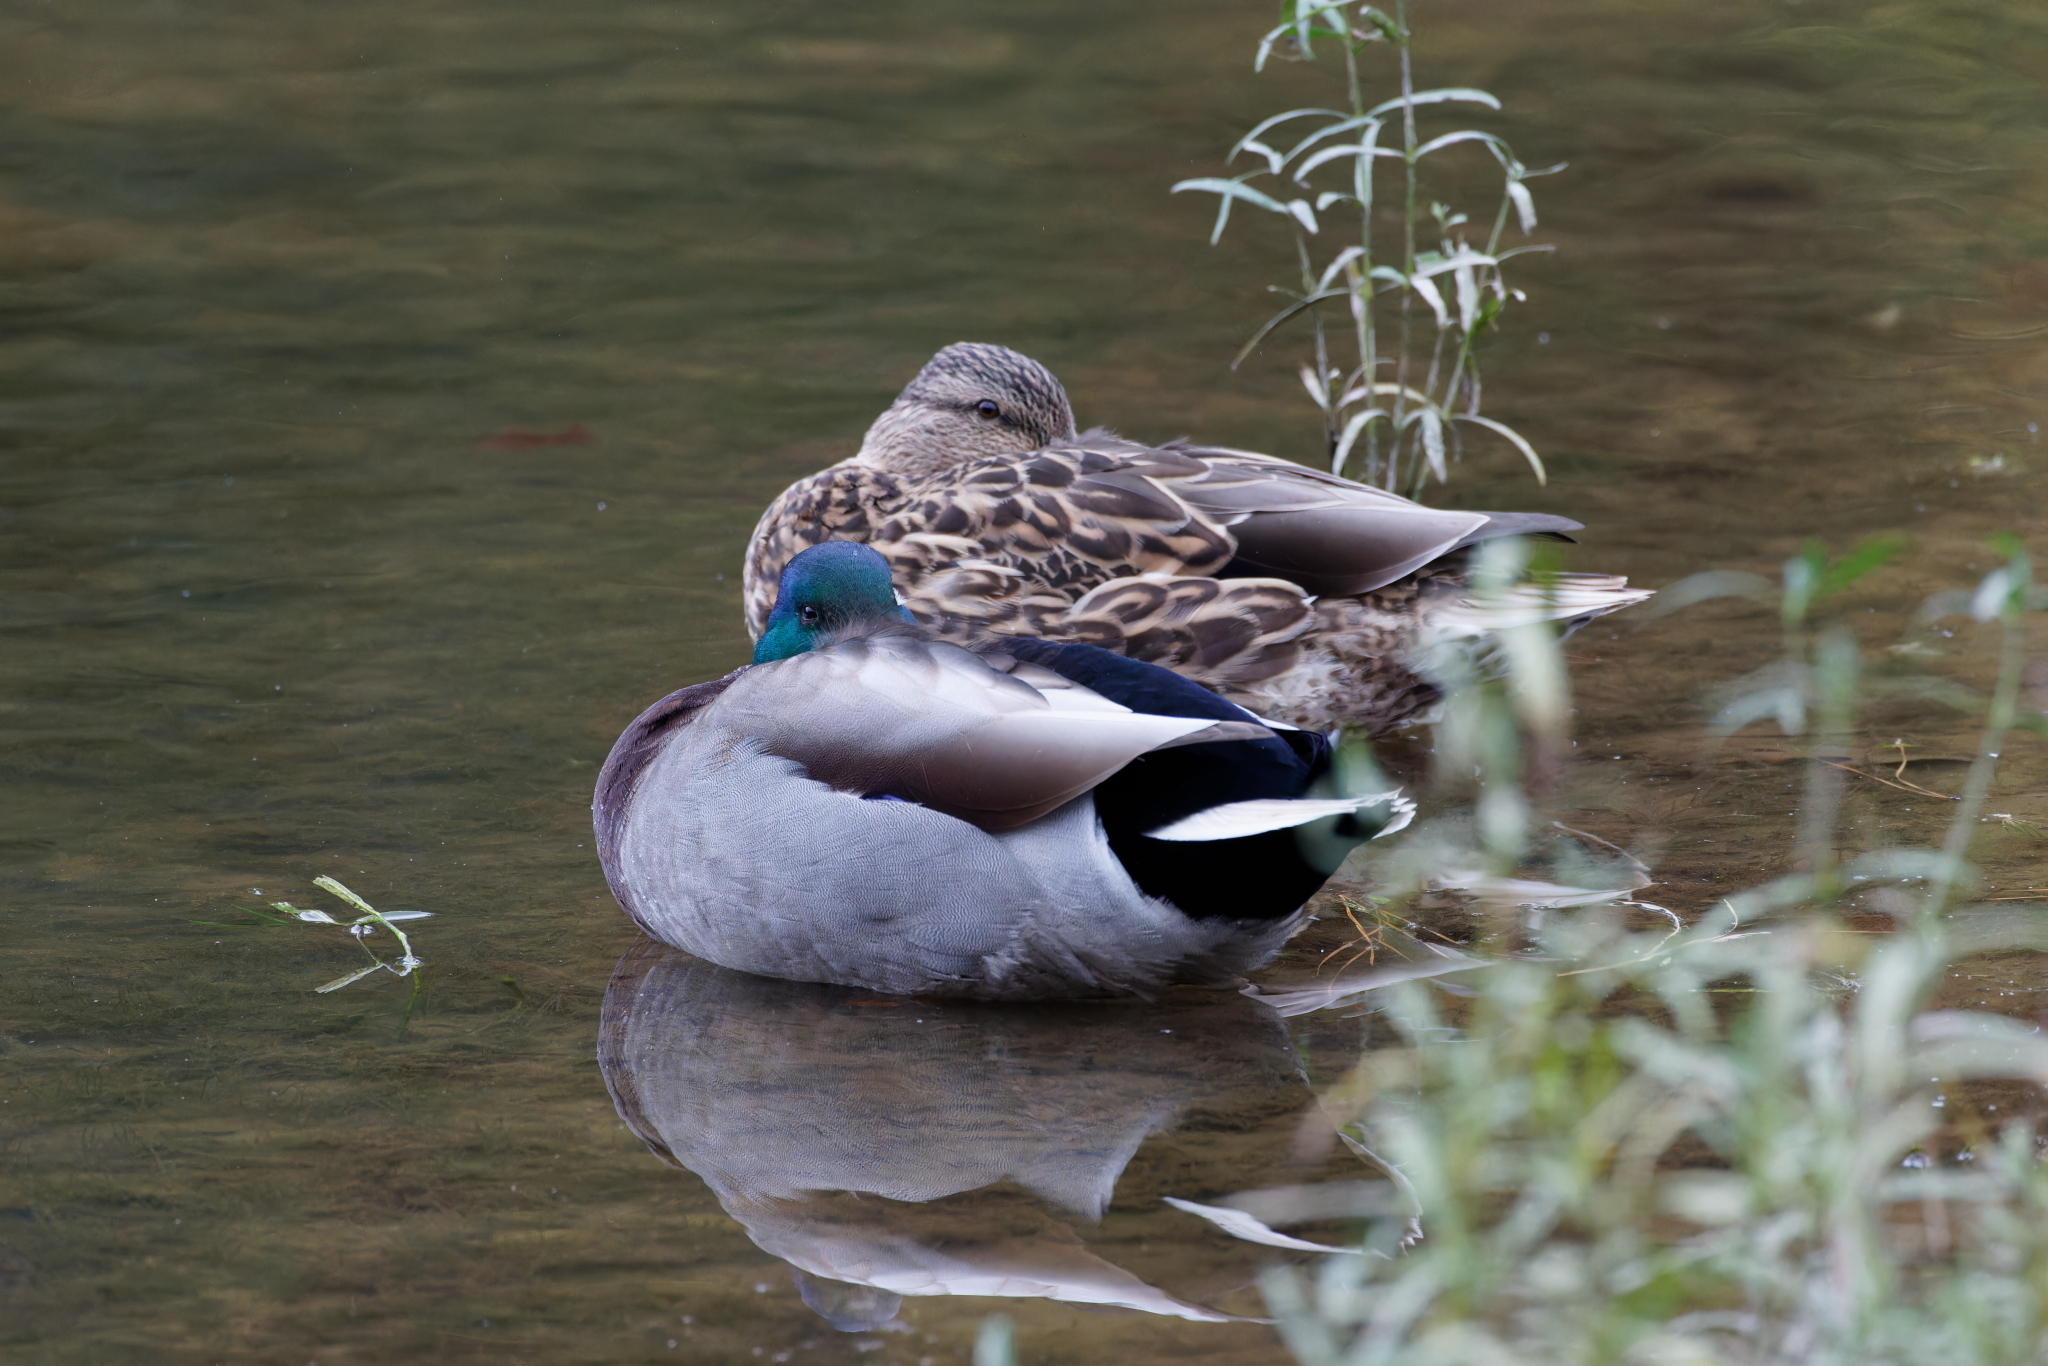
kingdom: Animalia
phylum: Chordata
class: Aves
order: Anseriformes
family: Anatidae
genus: Anas
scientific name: Anas platyrhynchos
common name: Mallard
